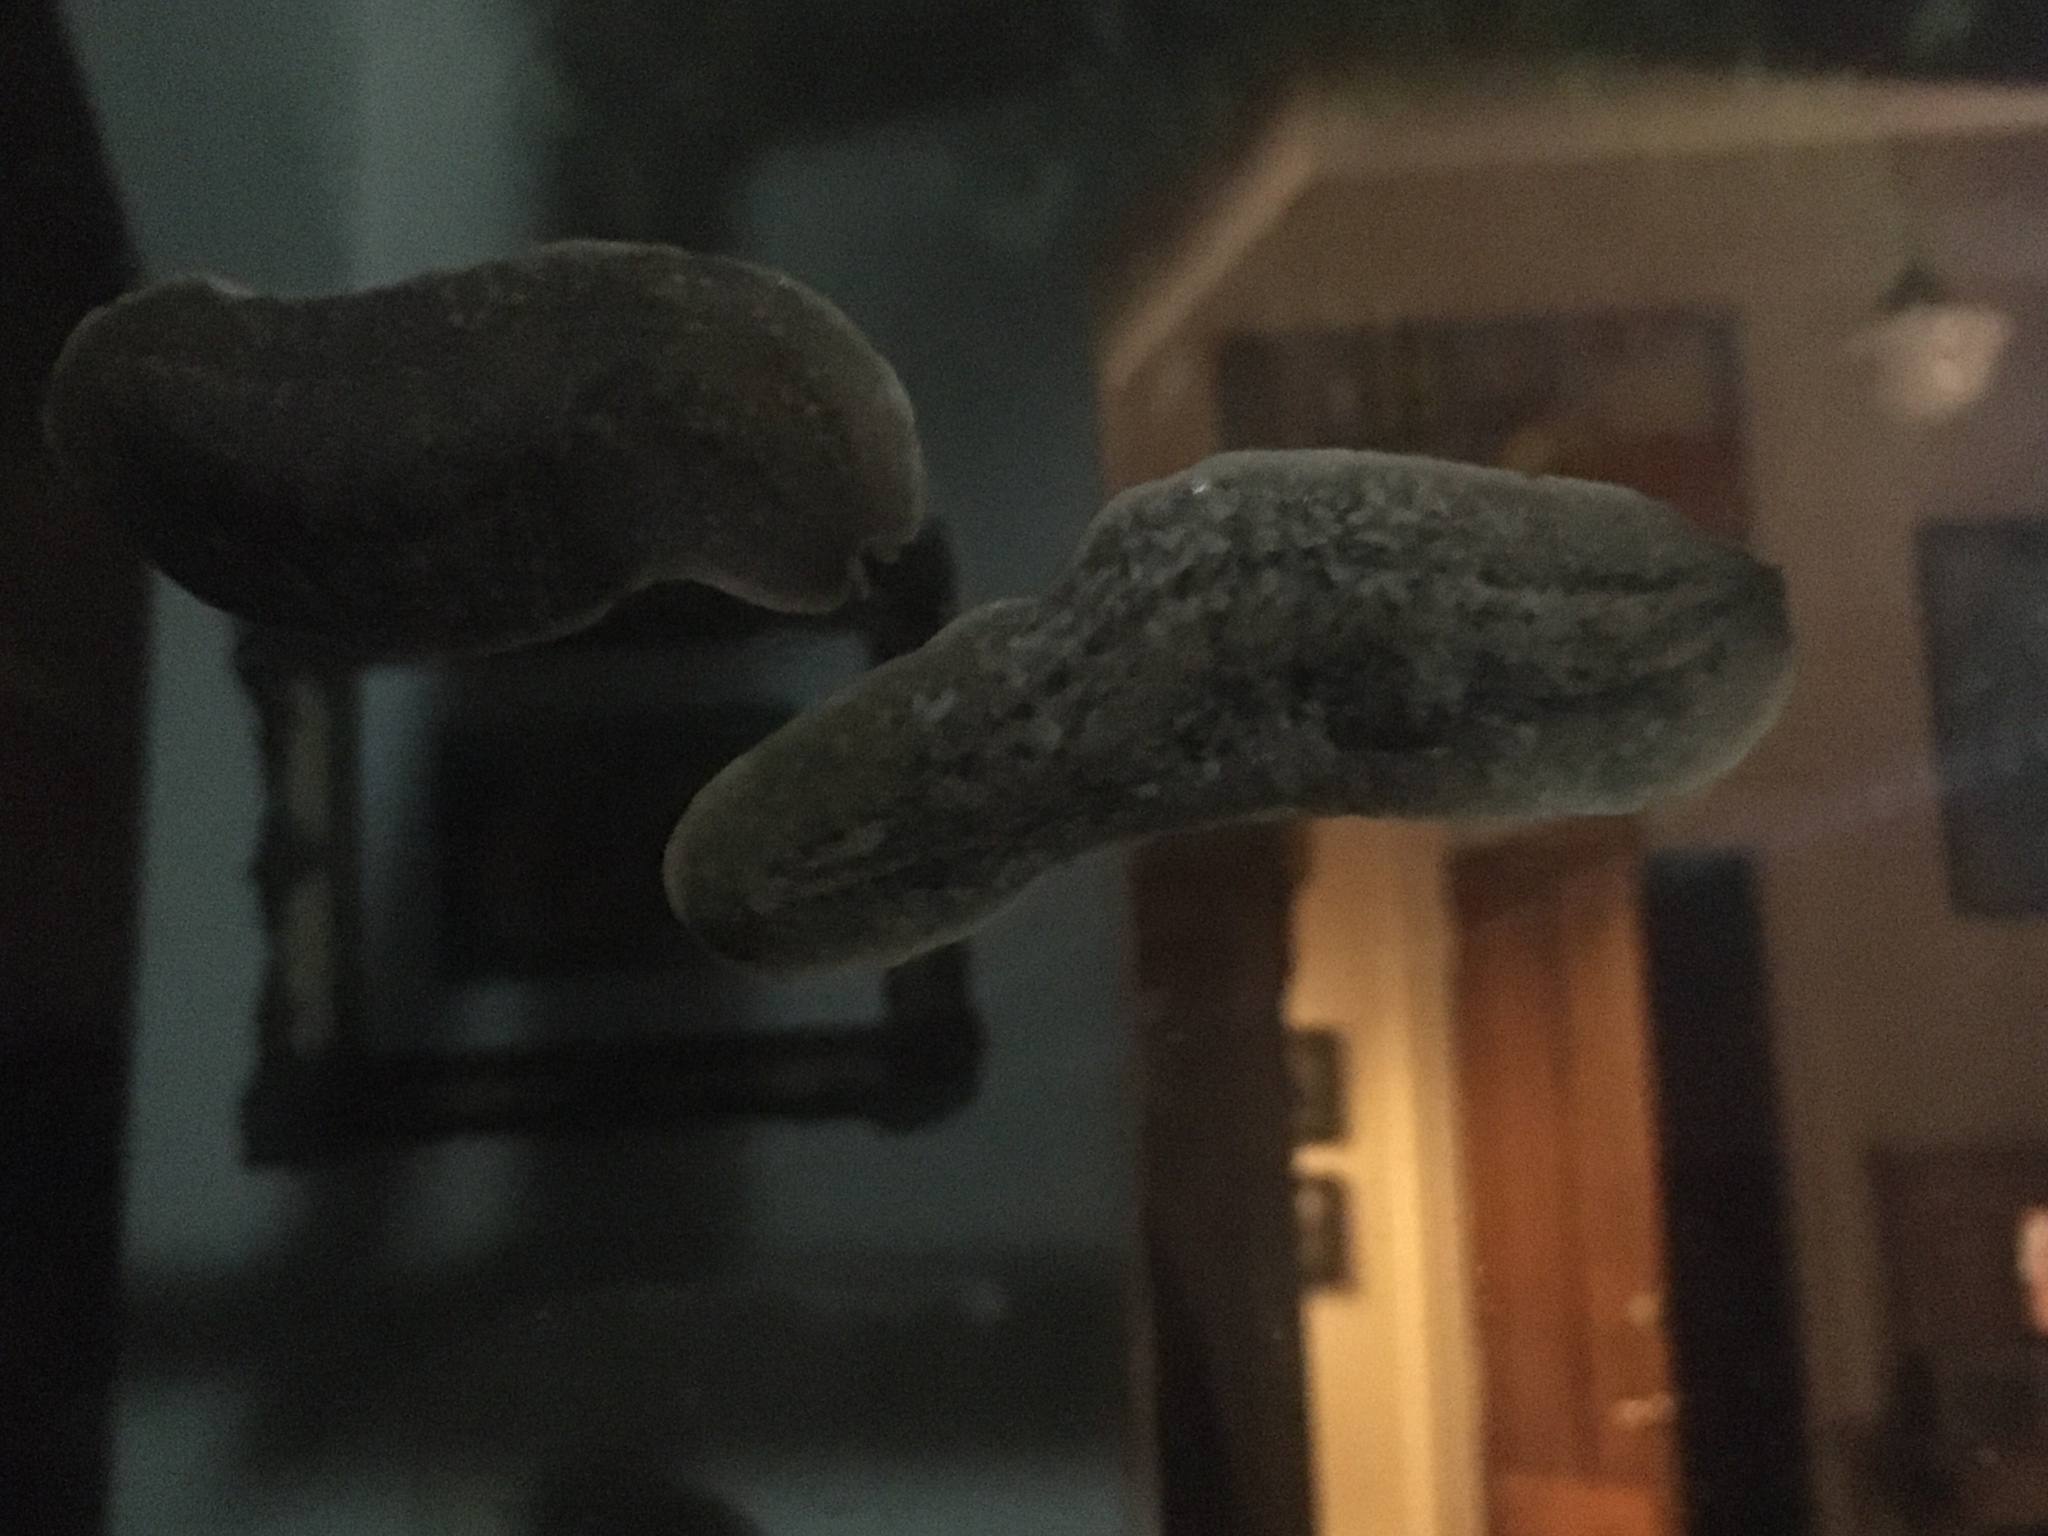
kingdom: Animalia
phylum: Mollusca
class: Gastropoda
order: Systellommatophora
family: Veronicellidae
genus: Phyllocaulis
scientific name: Phyllocaulis soleiformis
